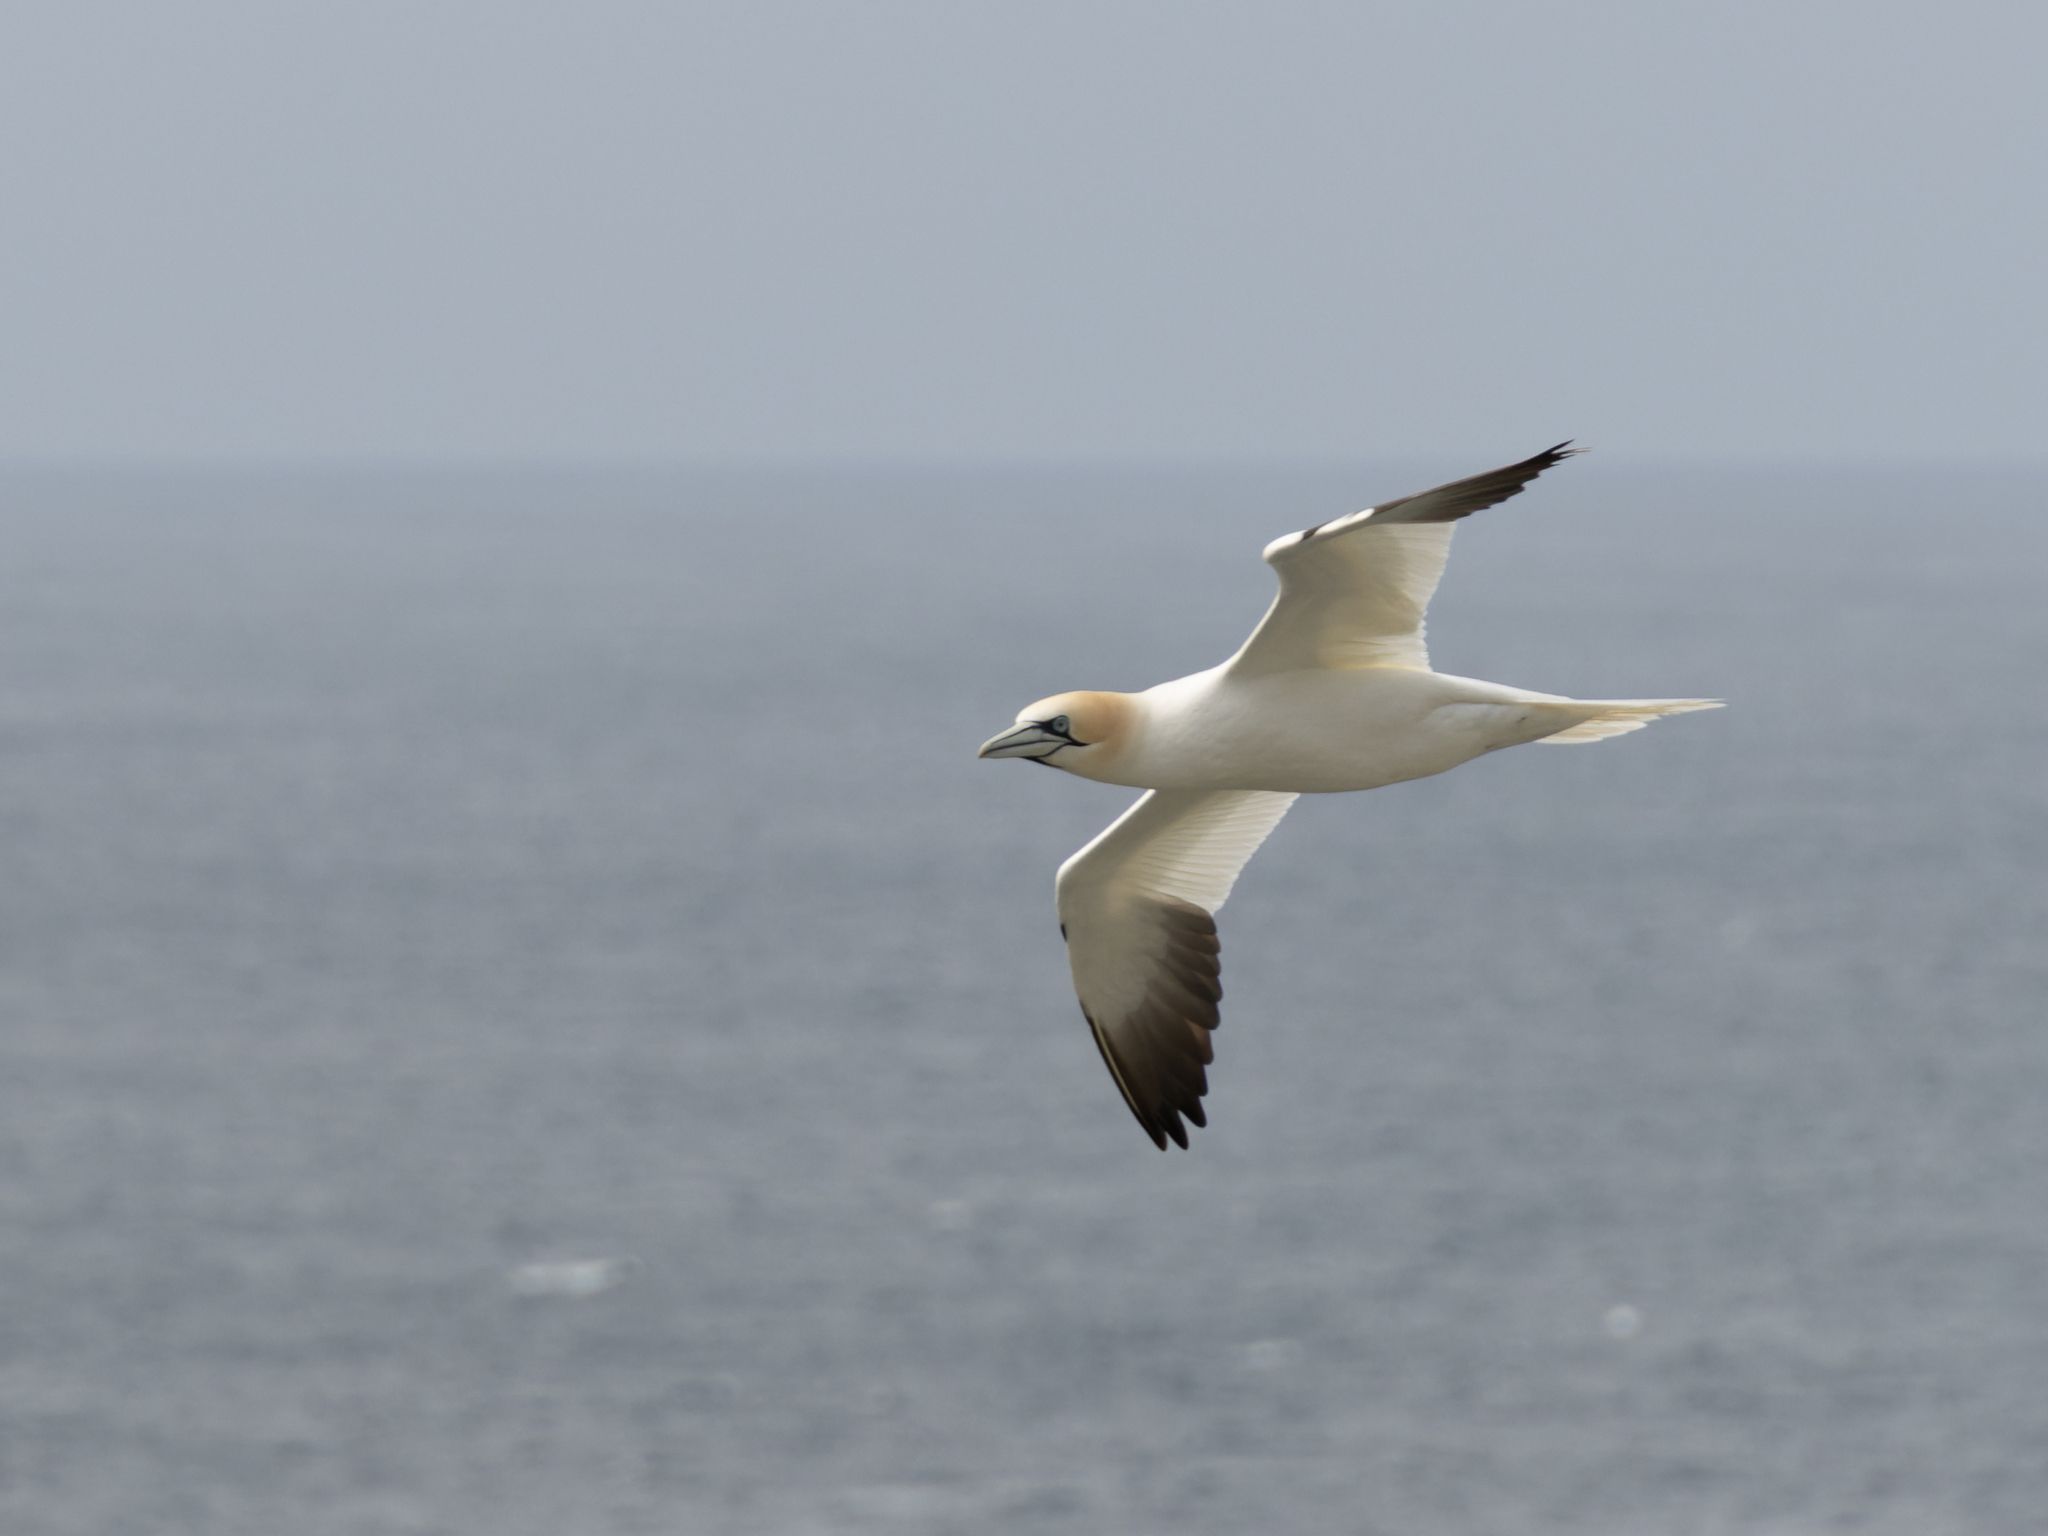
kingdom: Animalia
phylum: Chordata
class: Aves
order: Suliformes
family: Sulidae
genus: Morus
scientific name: Morus bassanus
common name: Northern gannet
